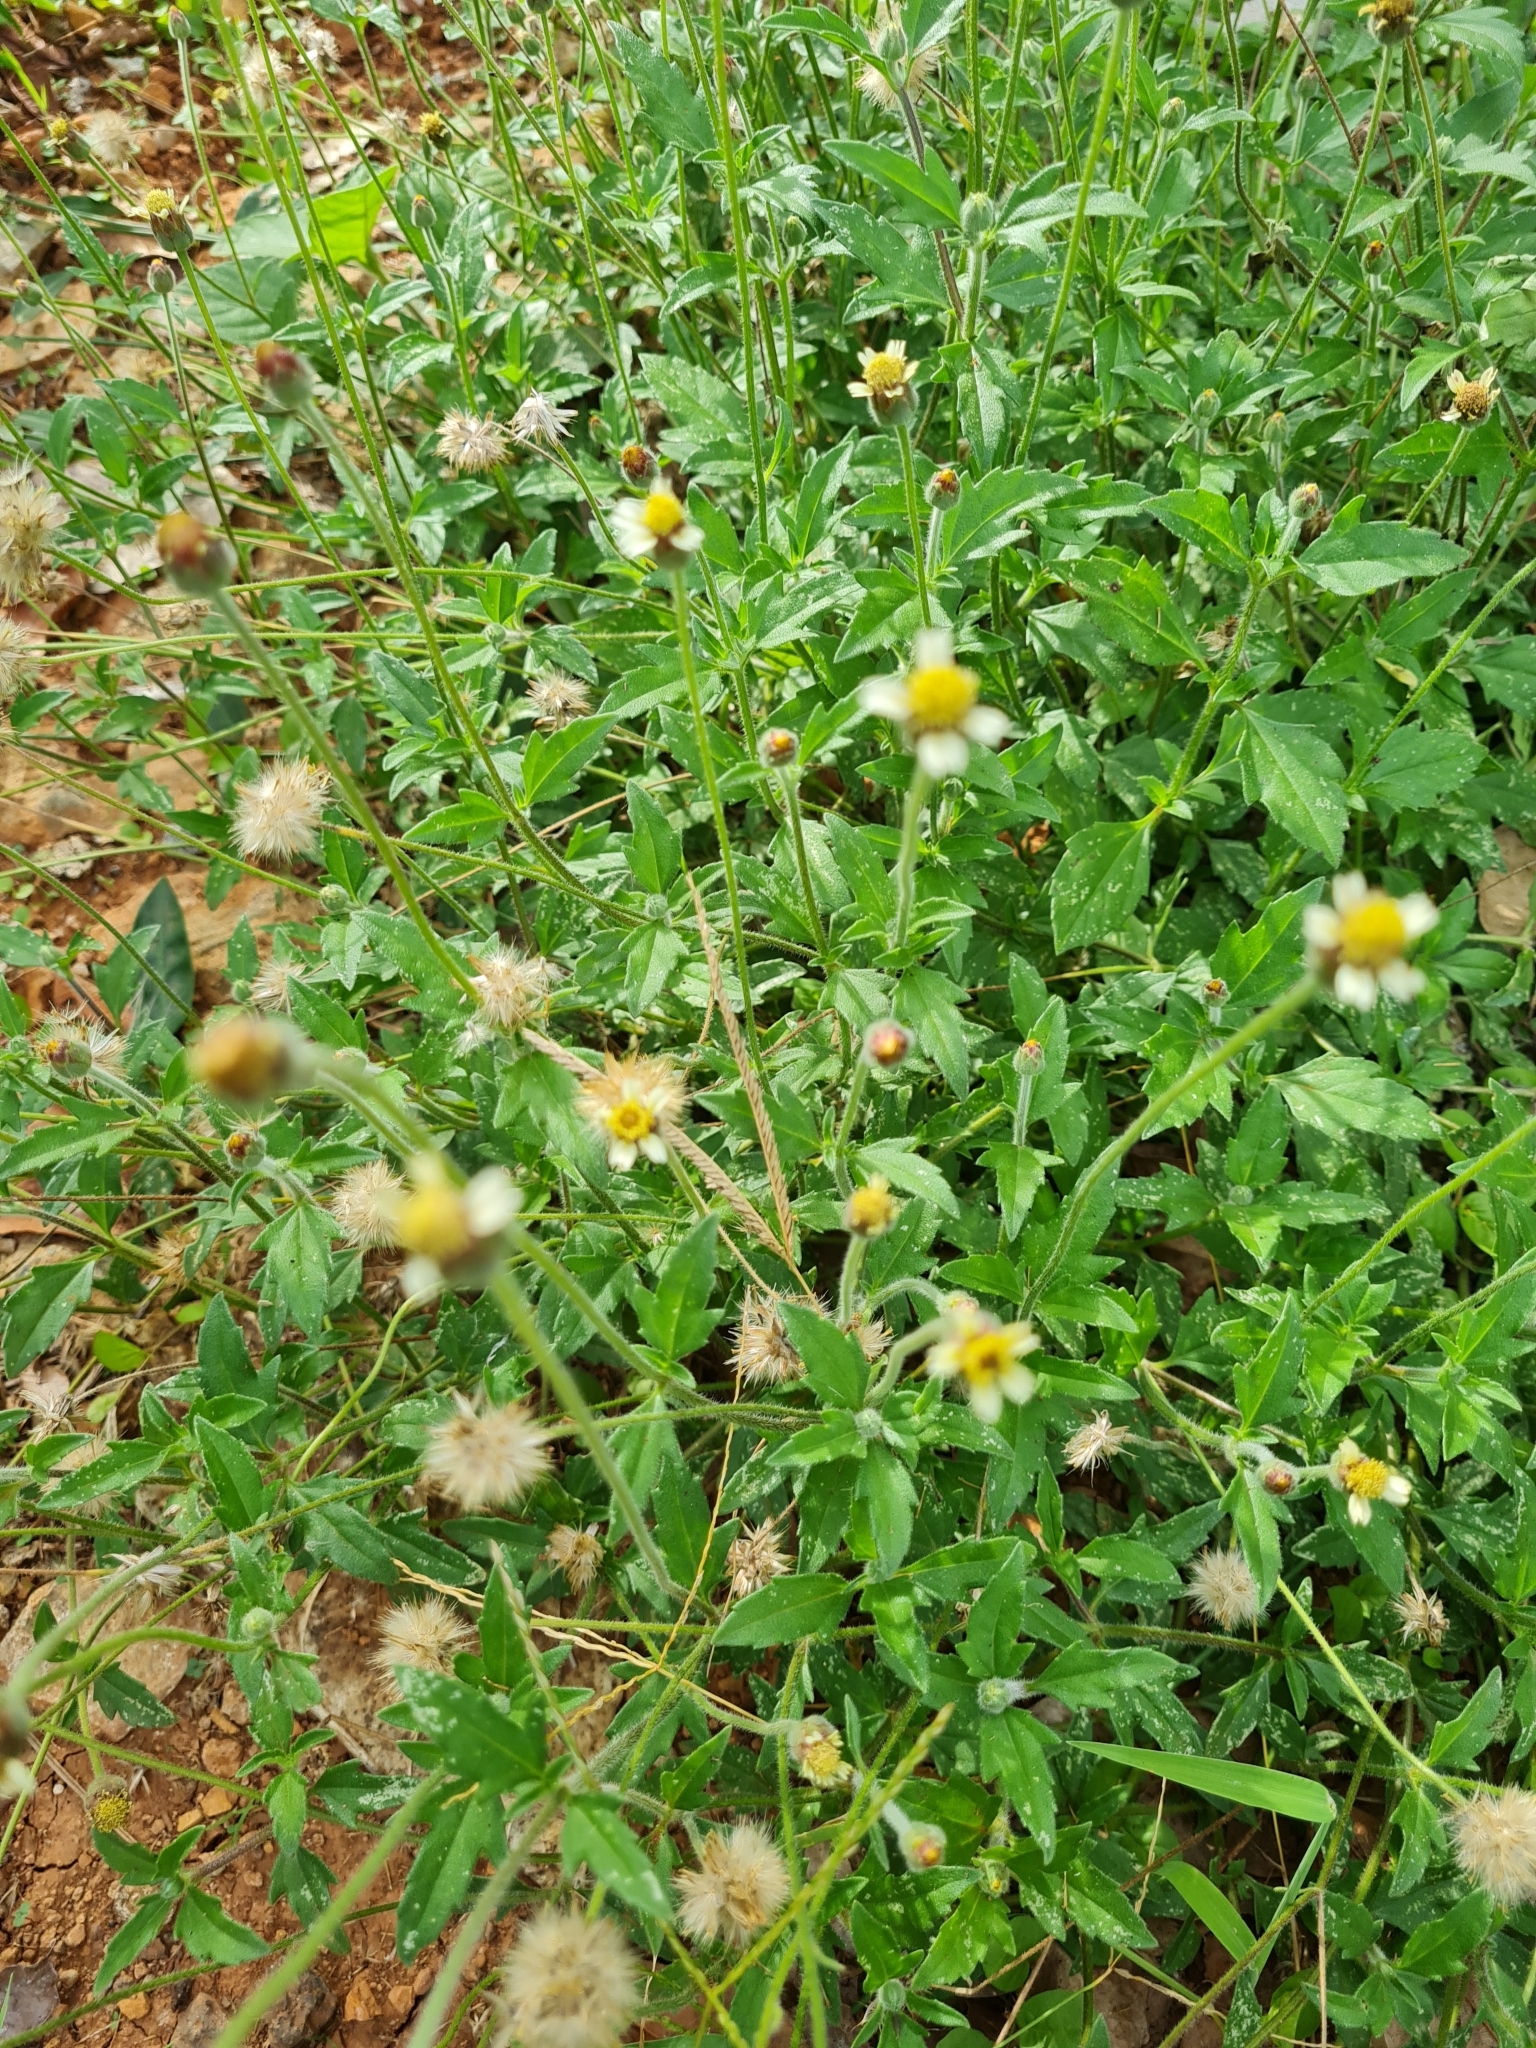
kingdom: Plantae
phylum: Tracheophyta
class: Magnoliopsida
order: Asterales
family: Asteraceae
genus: Tridax
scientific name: Tridax procumbens
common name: Coatbuttons
